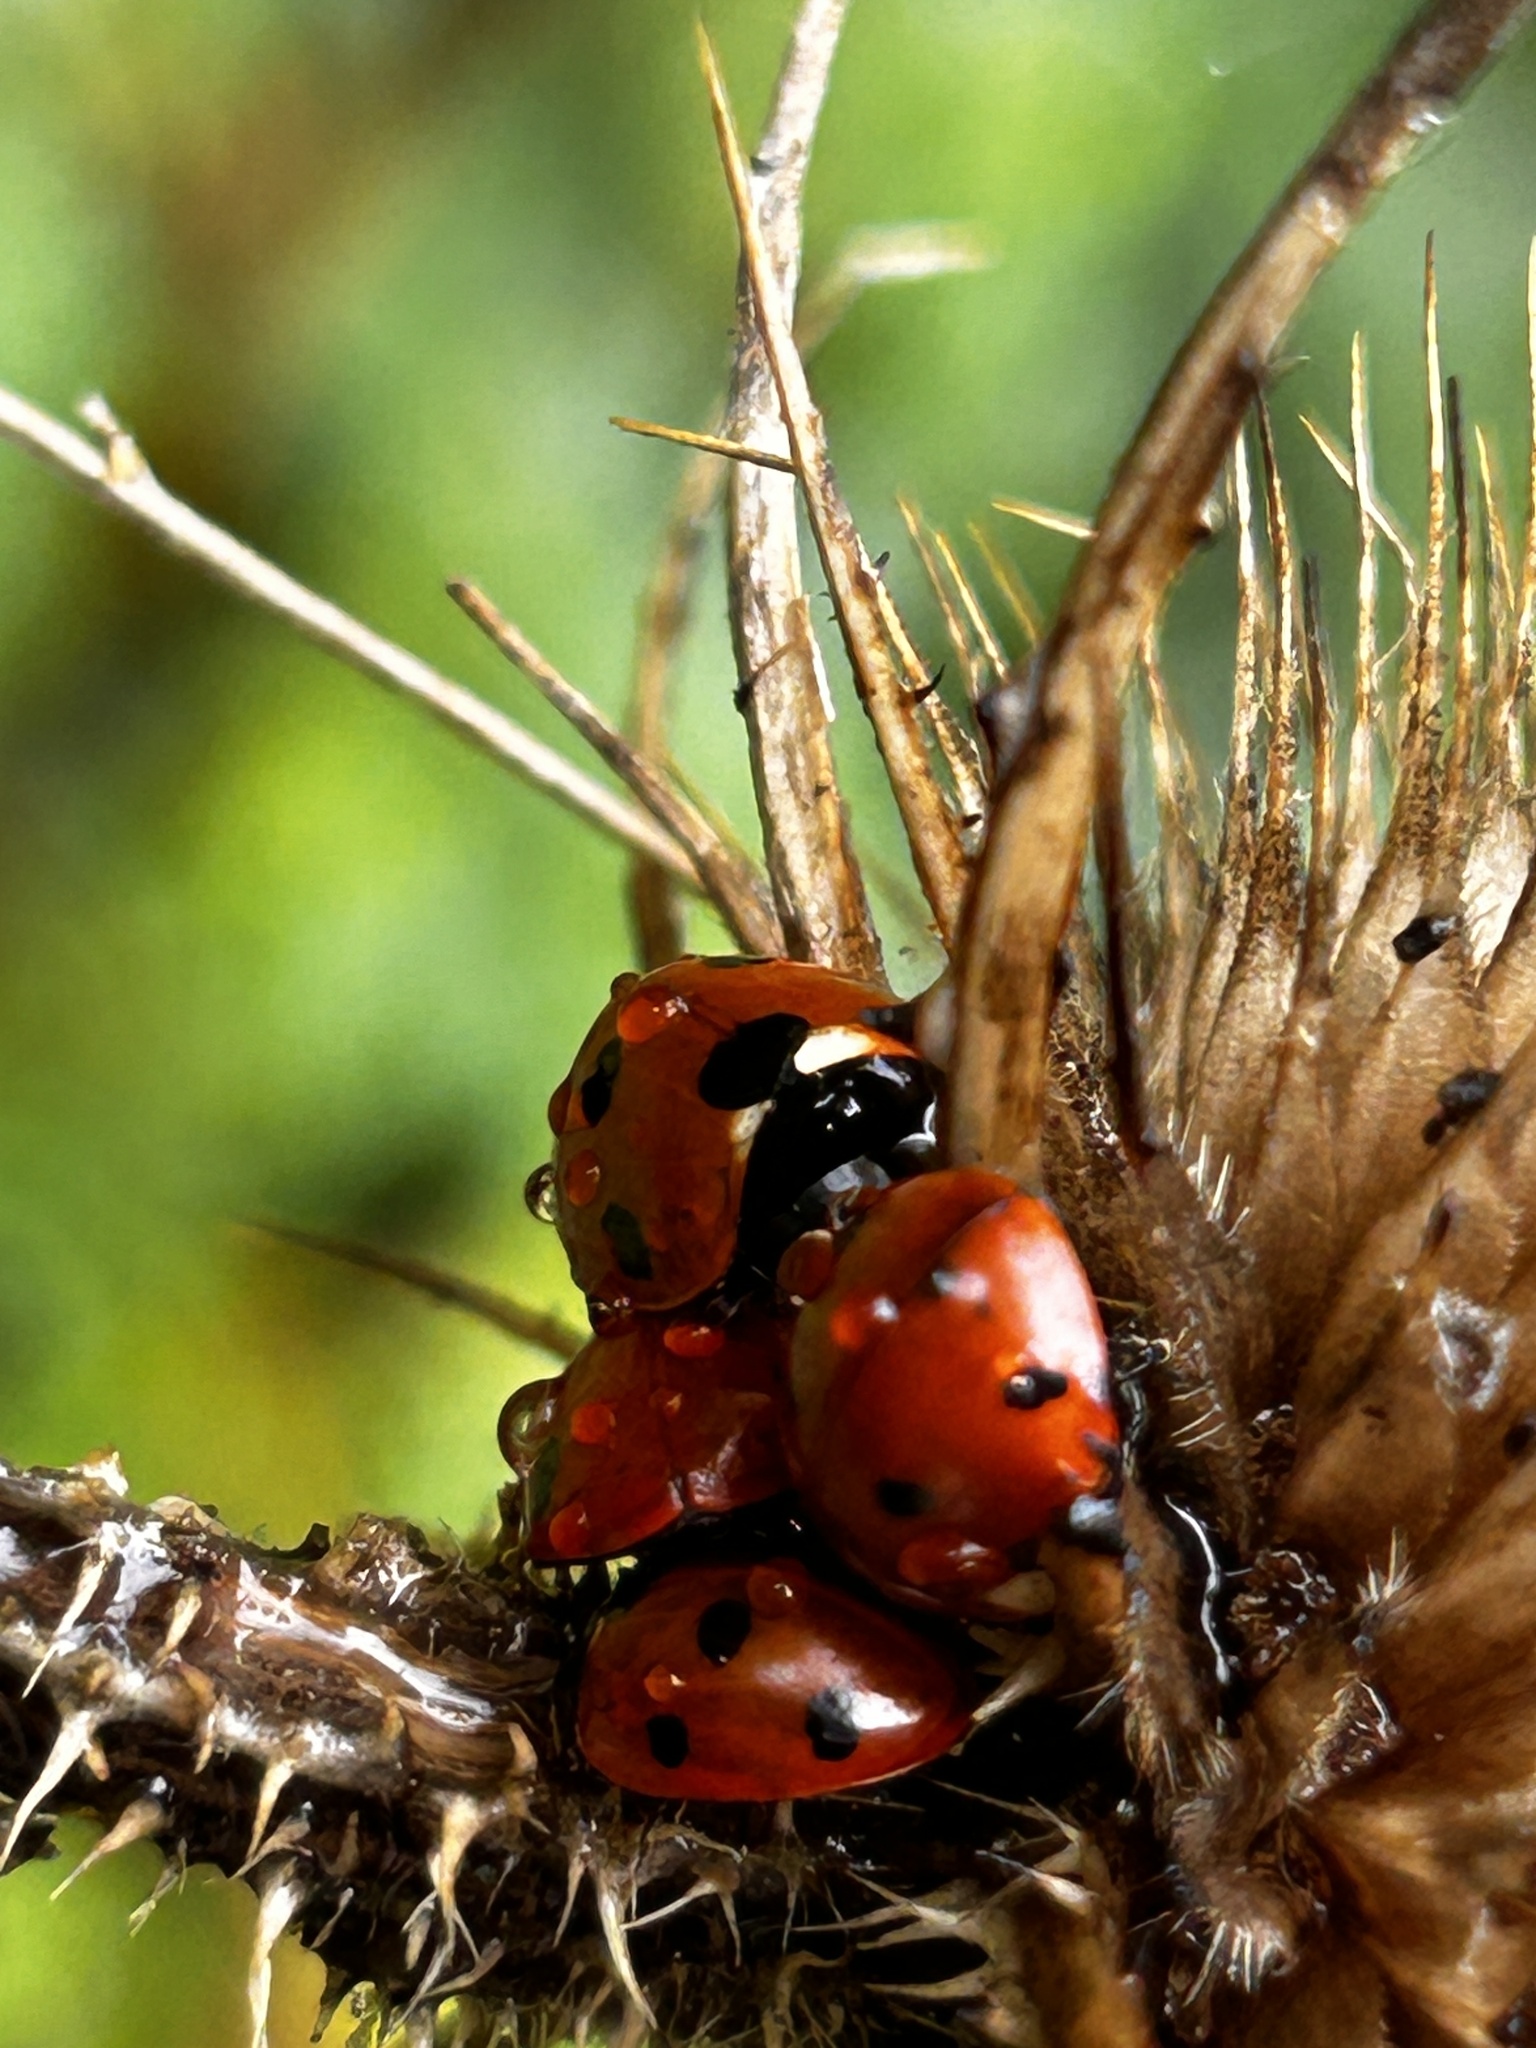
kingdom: Animalia
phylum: Arthropoda
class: Insecta
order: Coleoptera
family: Coccinellidae
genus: Coccinella
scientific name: Coccinella septempunctata
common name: Sevenspotted lady beetle
